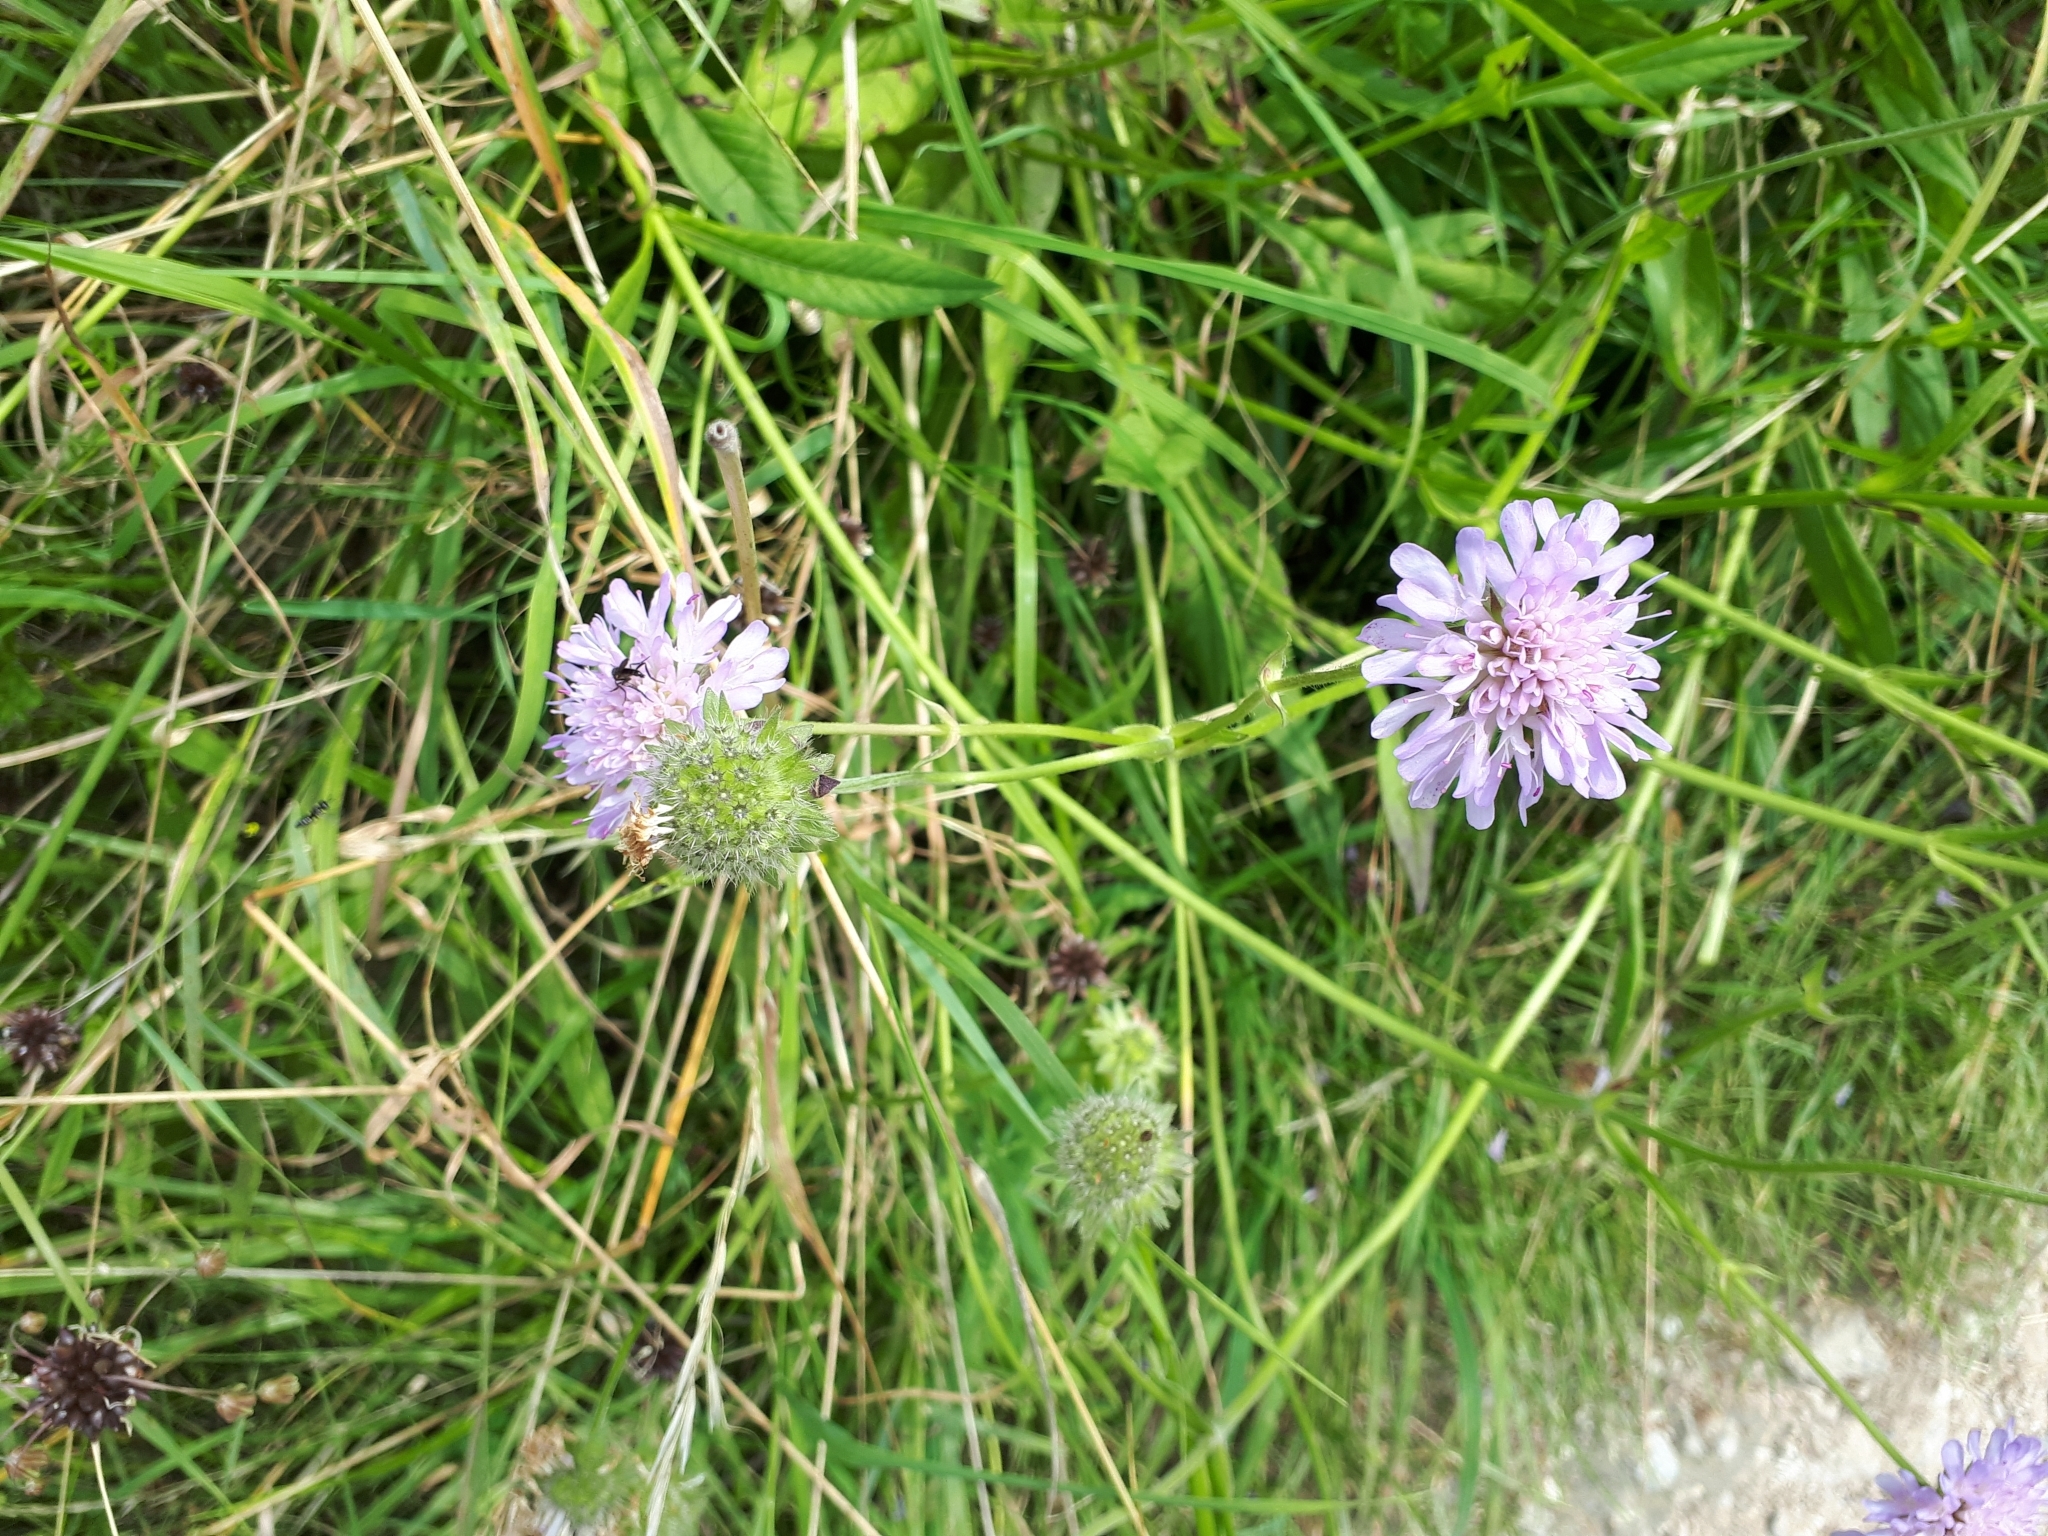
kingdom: Plantae
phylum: Tracheophyta
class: Magnoliopsida
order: Dipsacales
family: Caprifoliaceae
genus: Knautia
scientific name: Knautia arvensis
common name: Field scabiosa
